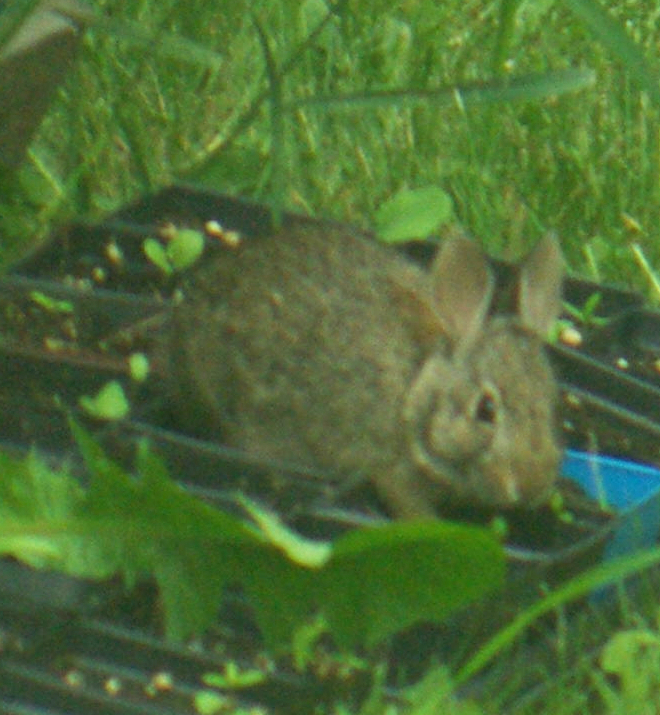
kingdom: Animalia
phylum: Chordata
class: Mammalia
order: Lagomorpha
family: Leporidae
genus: Sylvilagus
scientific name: Sylvilagus floridanus
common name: Eastern cottontail
